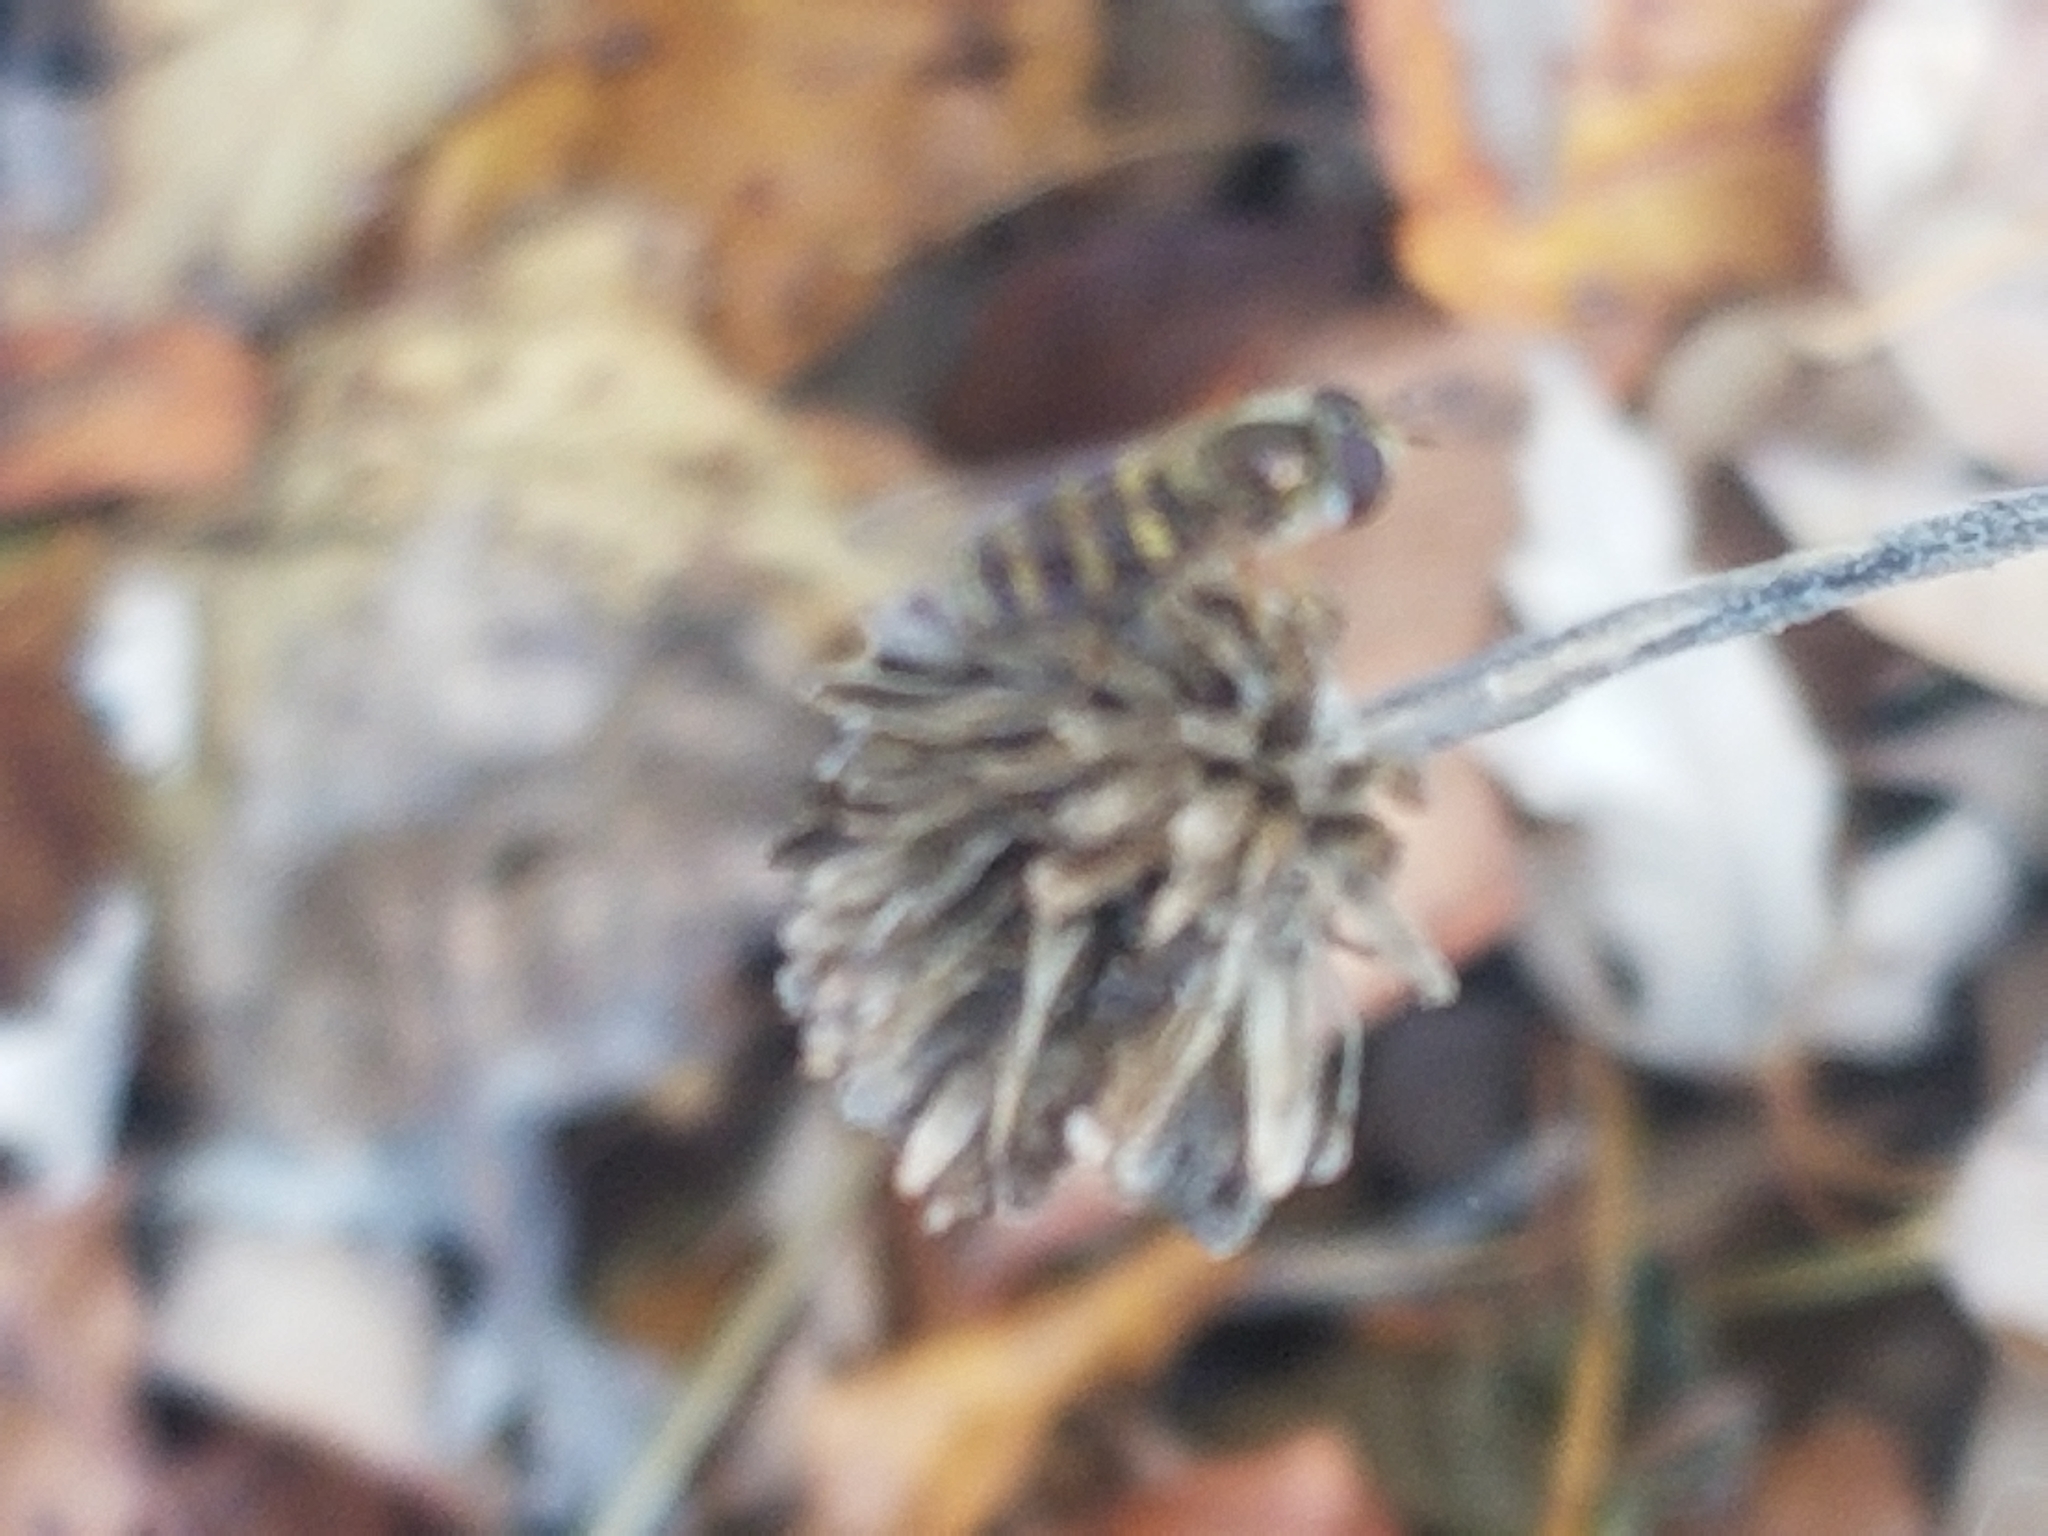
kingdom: Animalia
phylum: Arthropoda
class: Insecta
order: Diptera
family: Syrphidae
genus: Eupeodes
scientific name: Eupeodes
